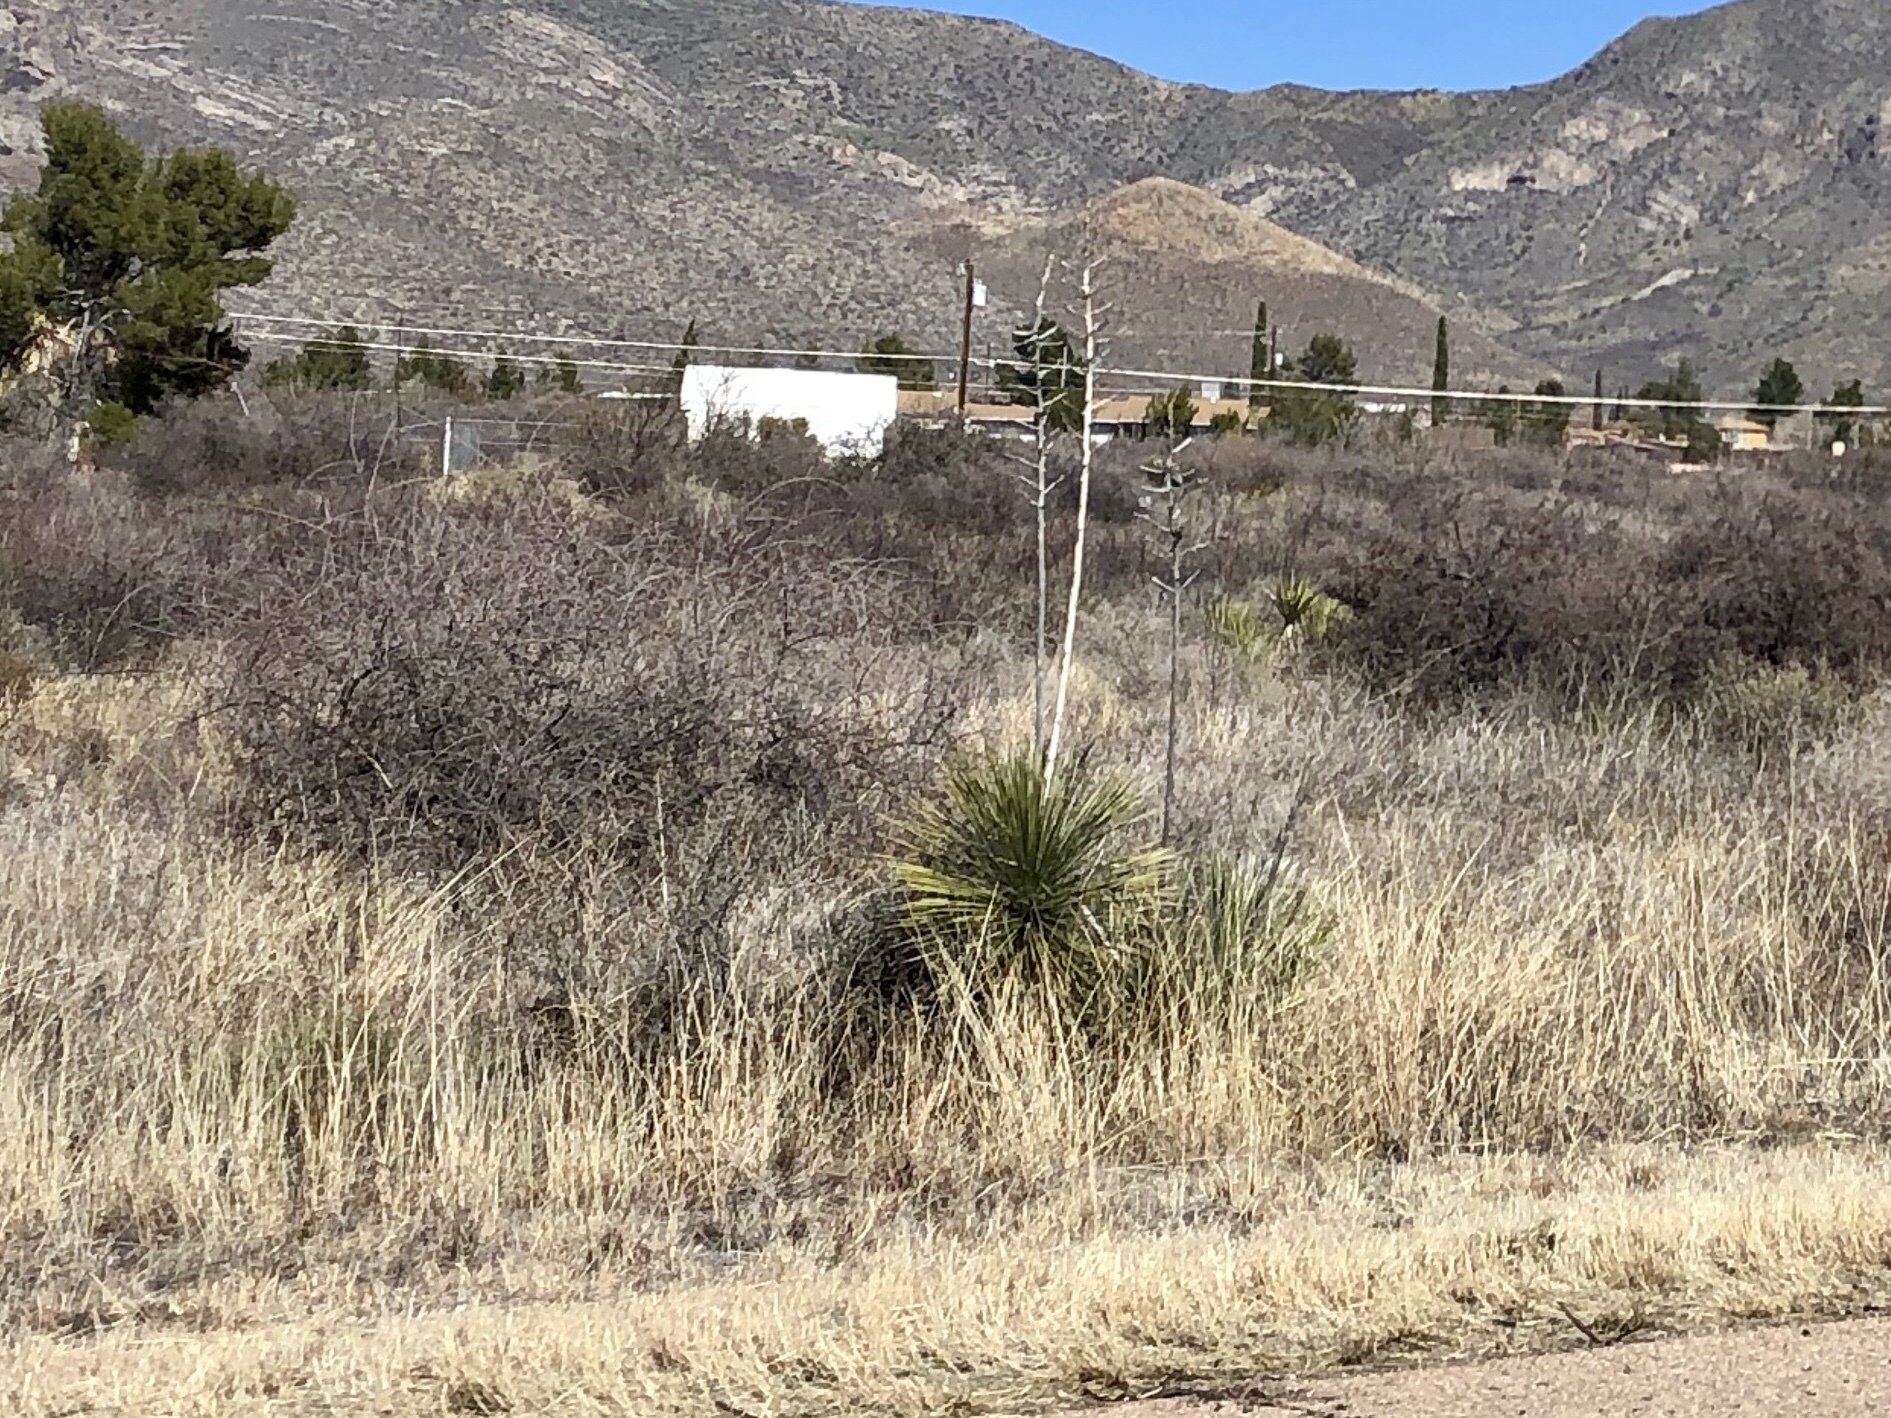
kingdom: Plantae
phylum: Tracheophyta
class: Liliopsida
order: Asparagales
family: Asparagaceae
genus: Yucca
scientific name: Yucca elata
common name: Palmella
